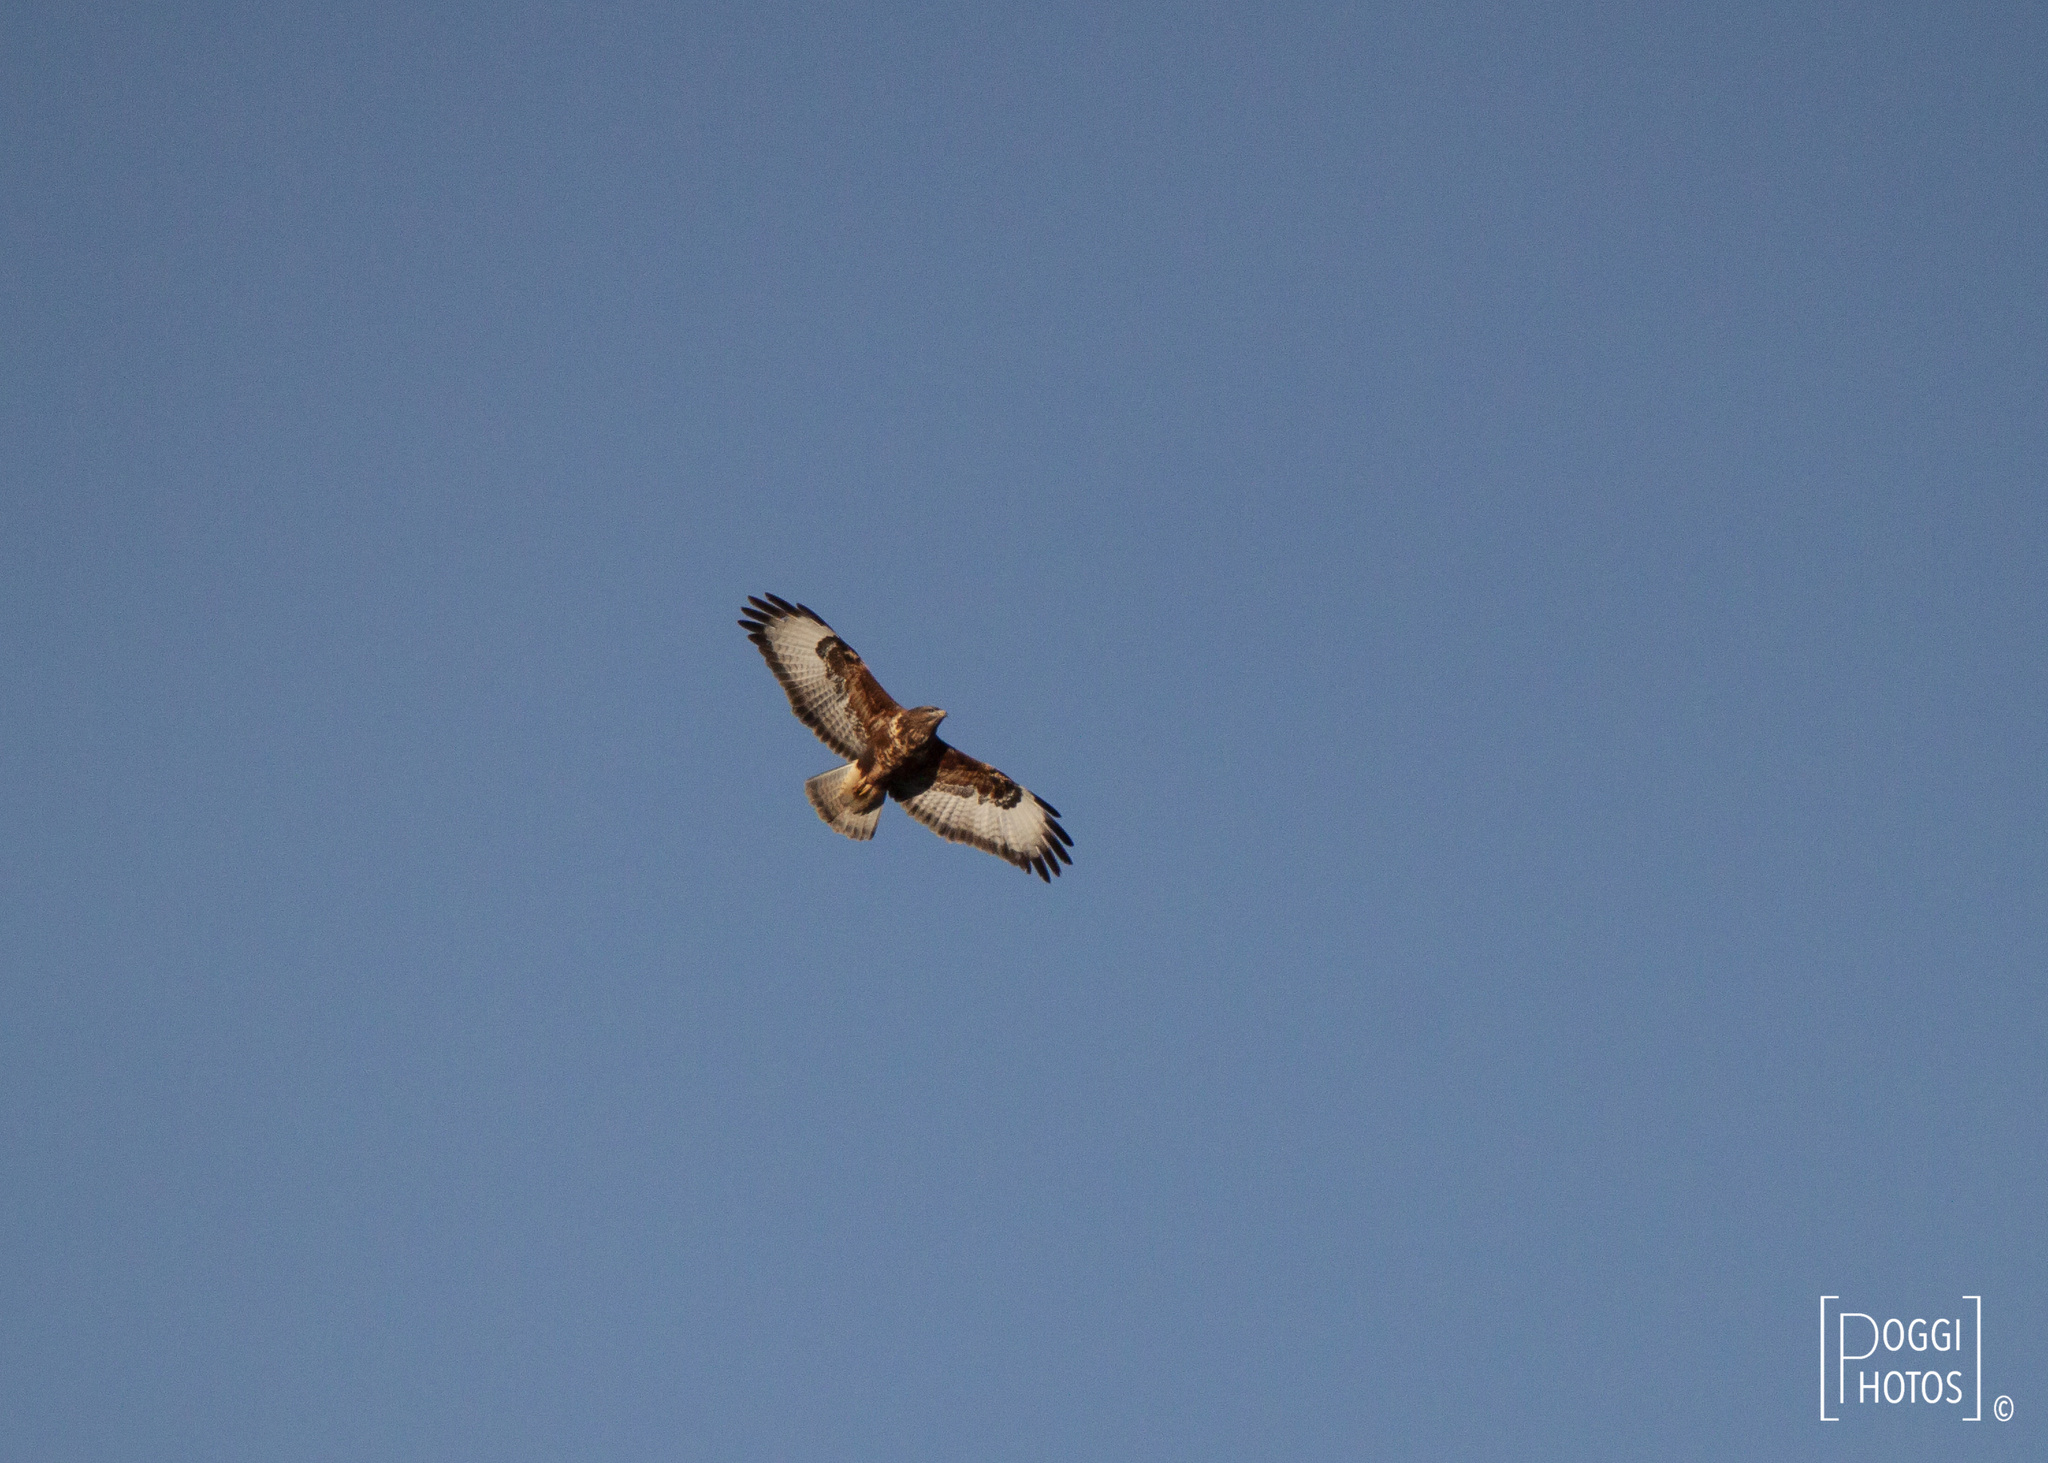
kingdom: Animalia
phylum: Chordata
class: Aves
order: Accipitriformes
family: Accipitridae
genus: Buteo
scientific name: Buteo buteo
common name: Common buzzard
